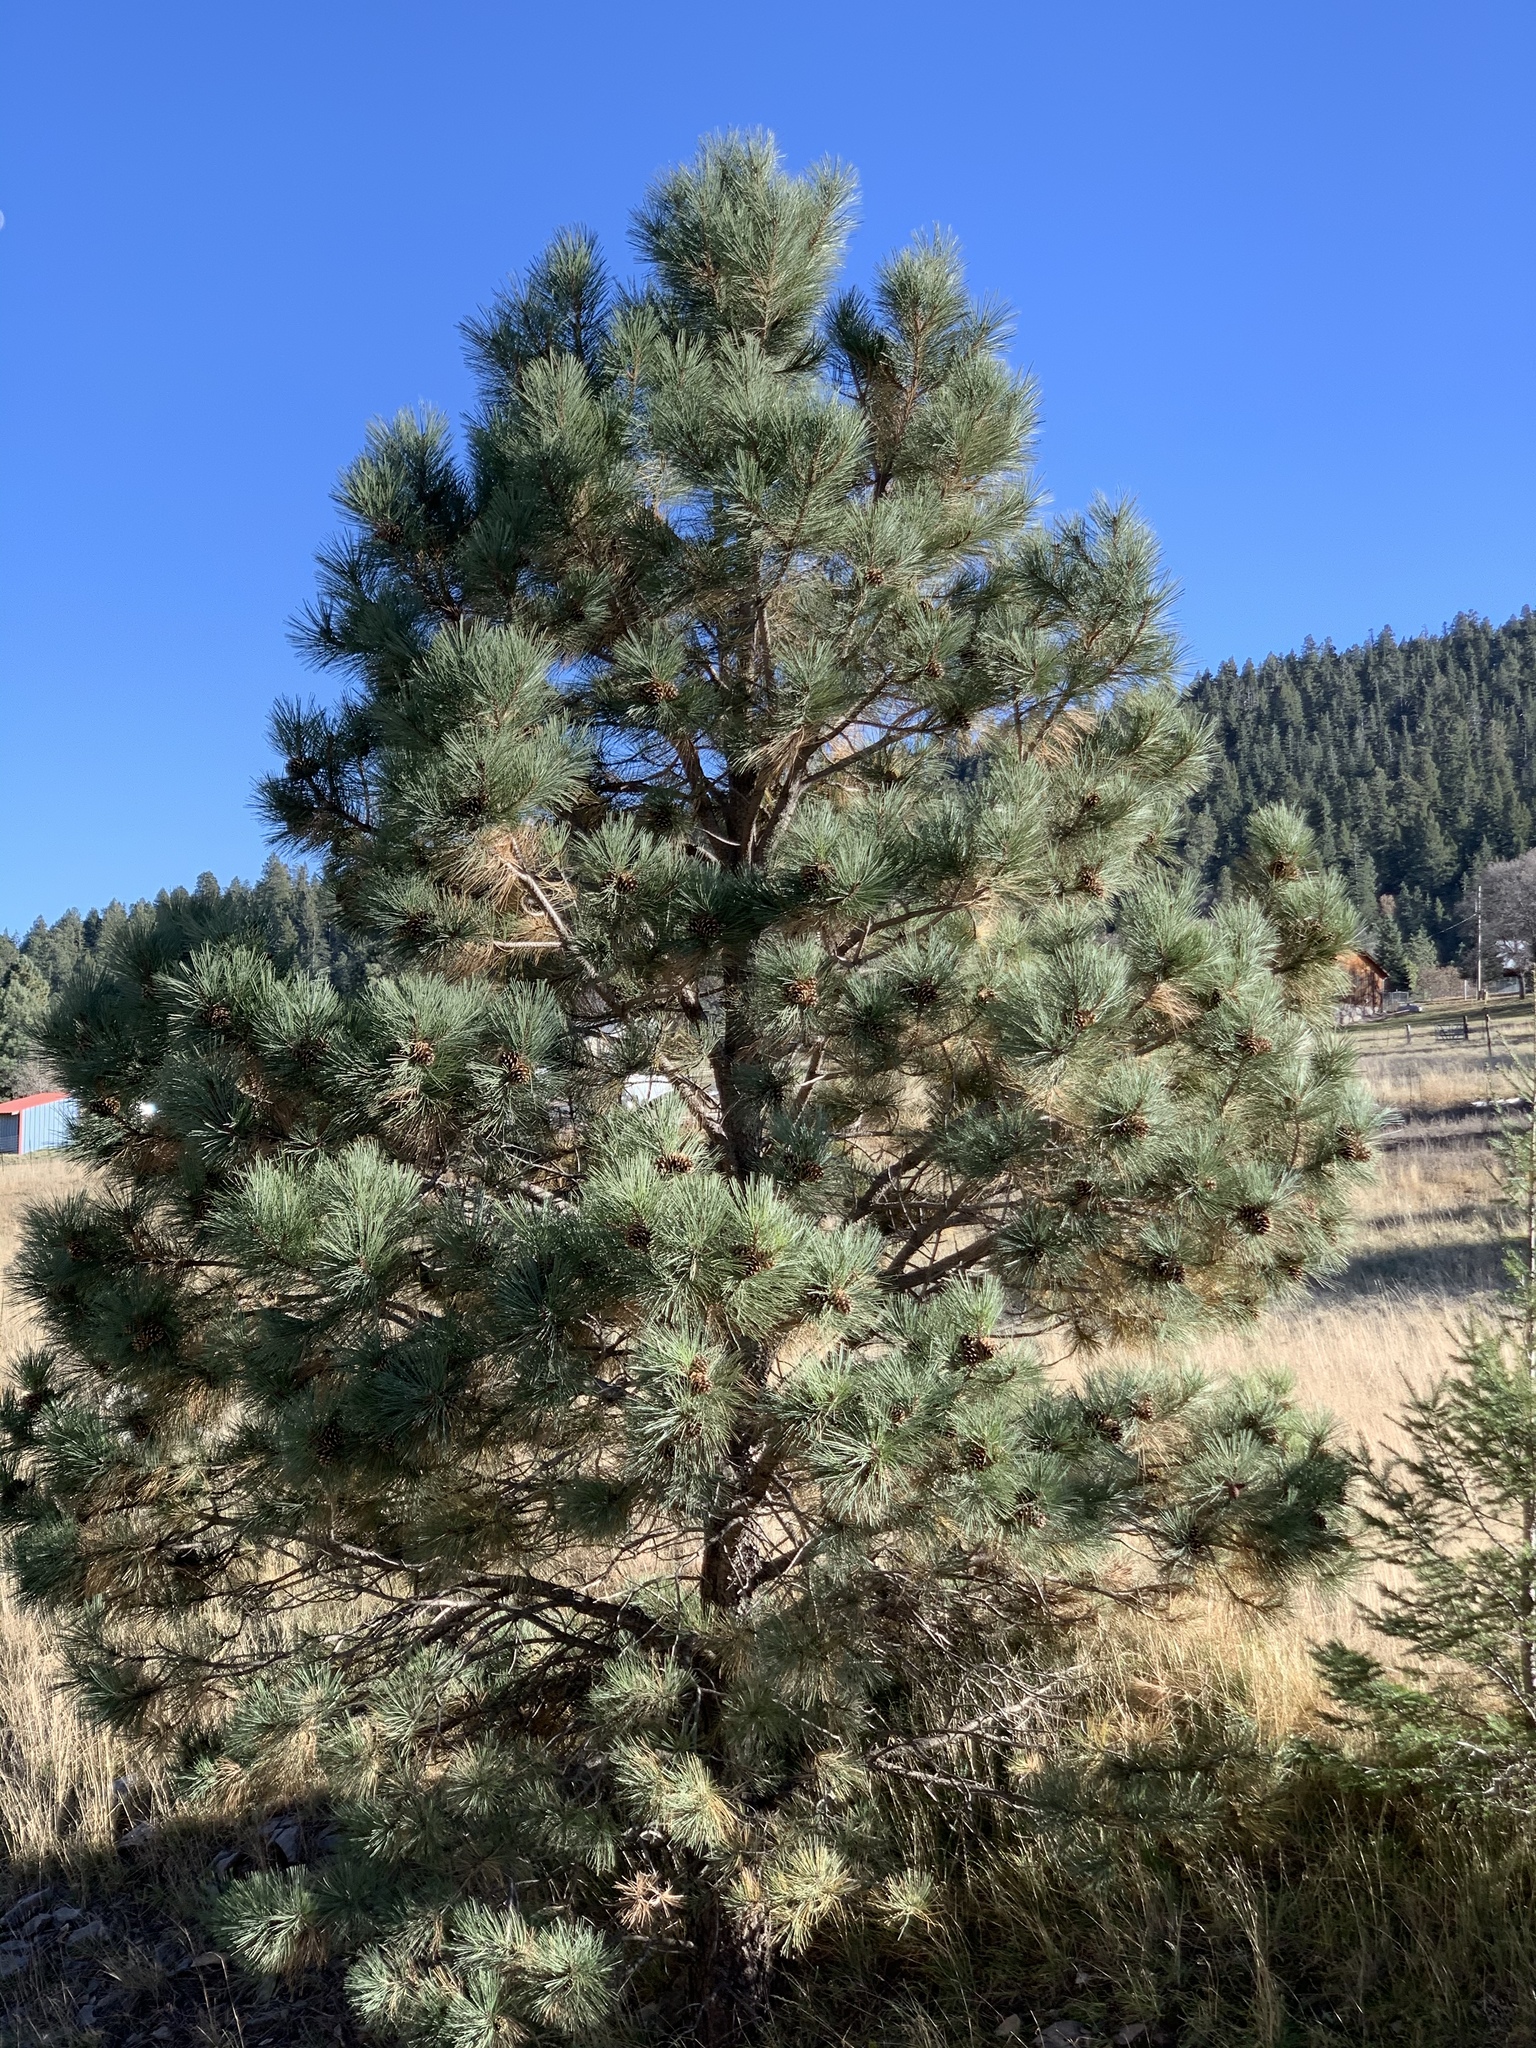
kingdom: Plantae
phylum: Tracheophyta
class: Pinopsida
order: Pinales
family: Pinaceae
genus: Pinus
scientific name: Pinus ponderosa
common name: Western yellow-pine
